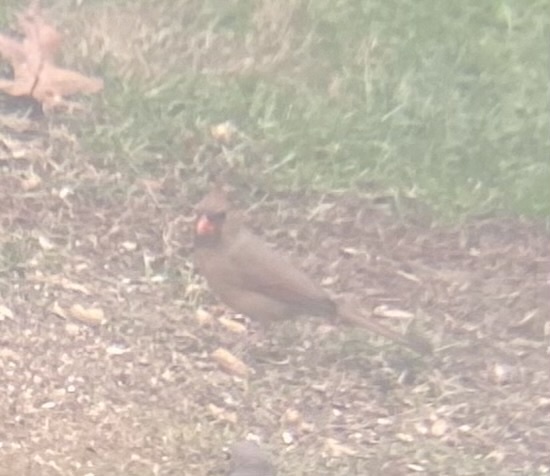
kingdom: Animalia
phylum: Chordata
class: Aves
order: Passeriformes
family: Cardinalidae
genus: Cardinalis
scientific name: Cardinalis cardinalis
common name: Northern cardinal
